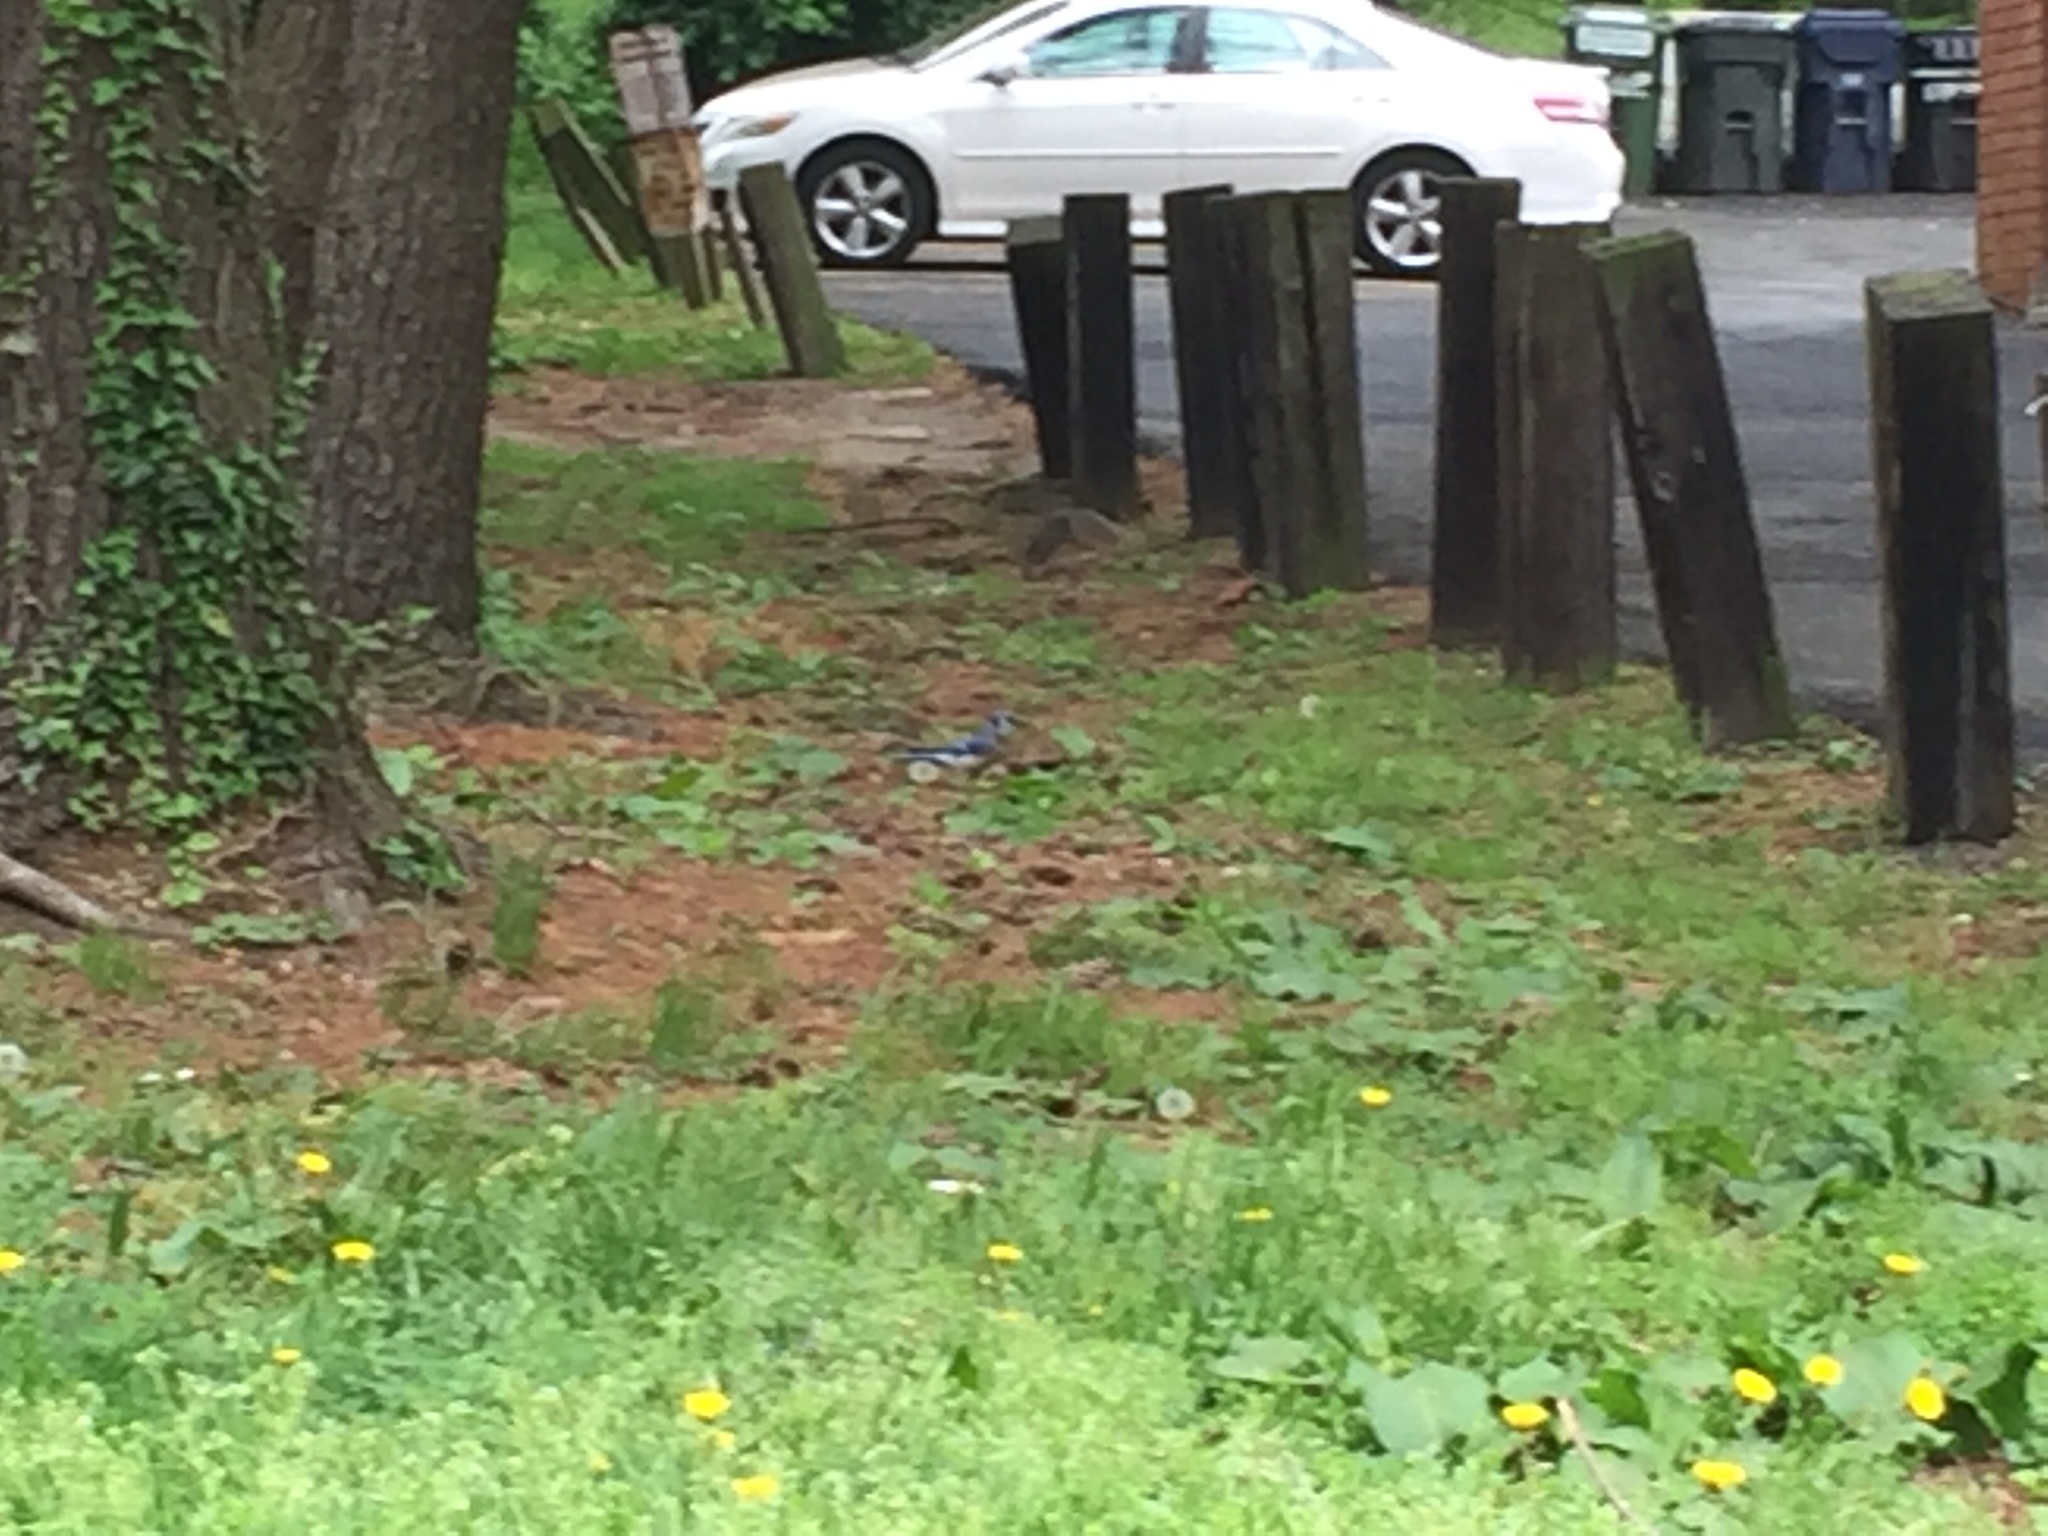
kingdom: Animalia
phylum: Chordata
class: Aves
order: Passeriformes
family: Corvidae
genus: Cyanocitta
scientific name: Cyanocitta cristata
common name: Blue jay
